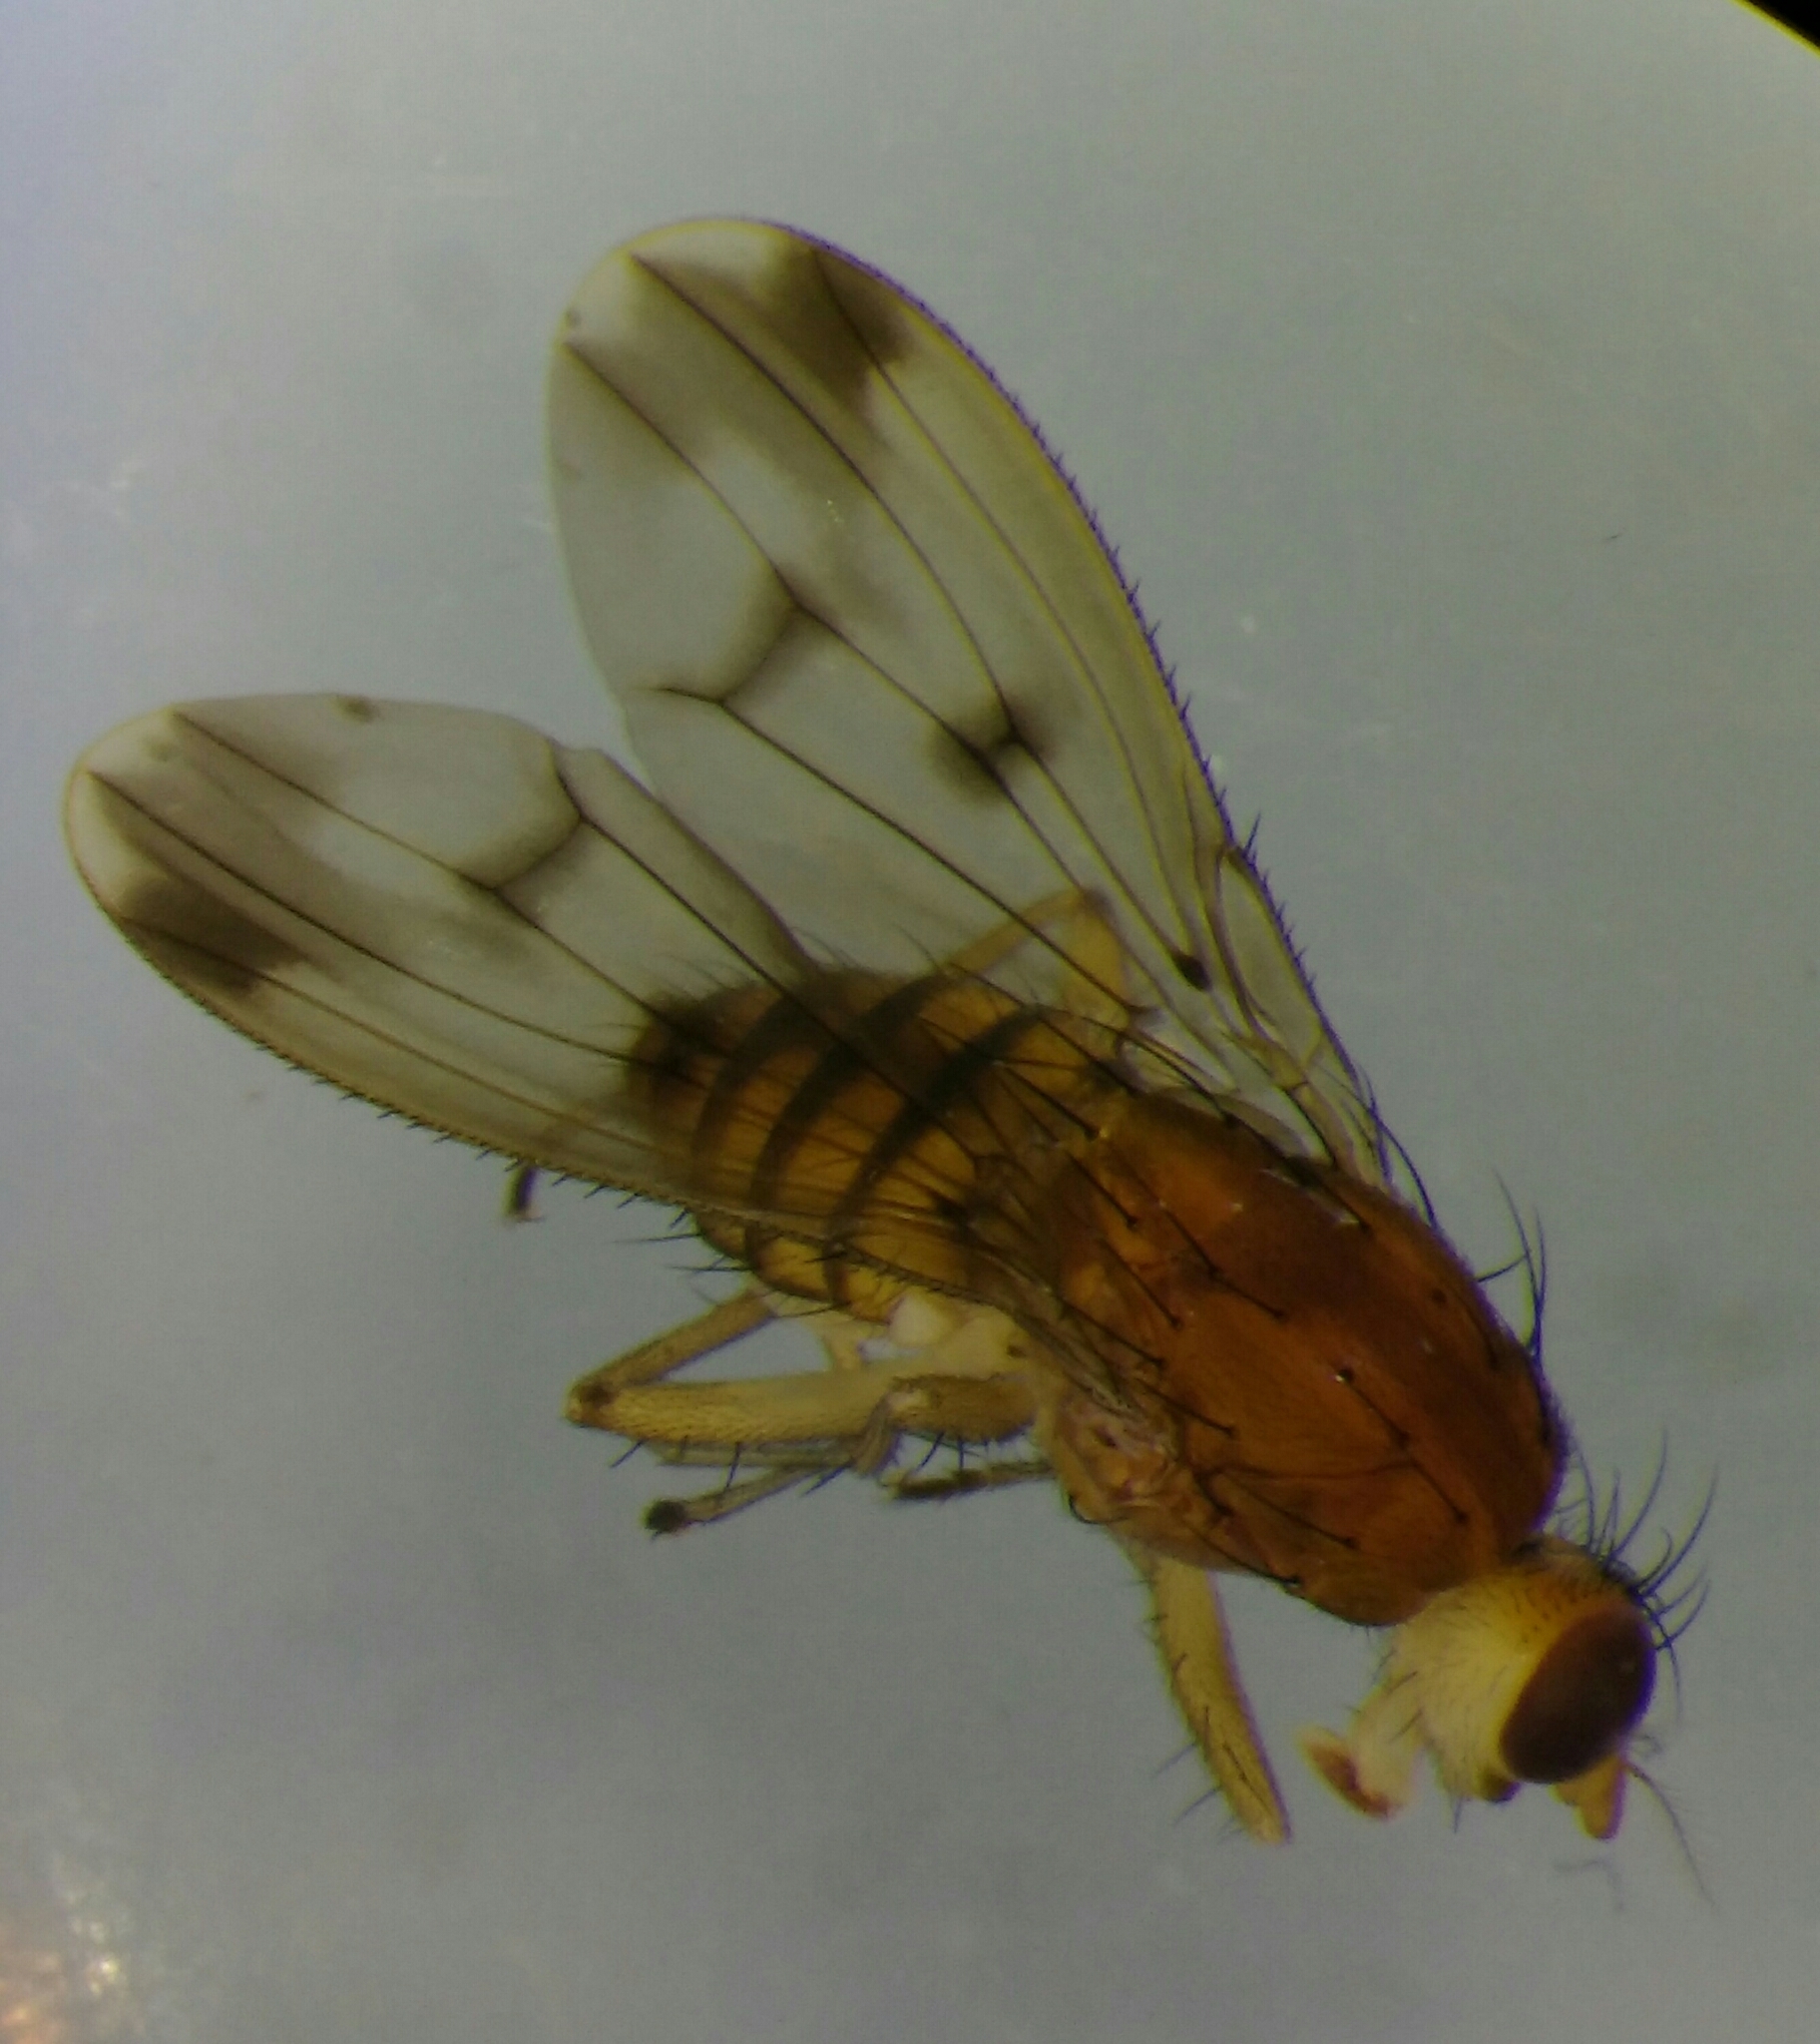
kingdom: Animalia
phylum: Arthropoda
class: Insecta
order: Diptera
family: Heleomyzidae
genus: Suillia
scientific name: Suillia variegata
